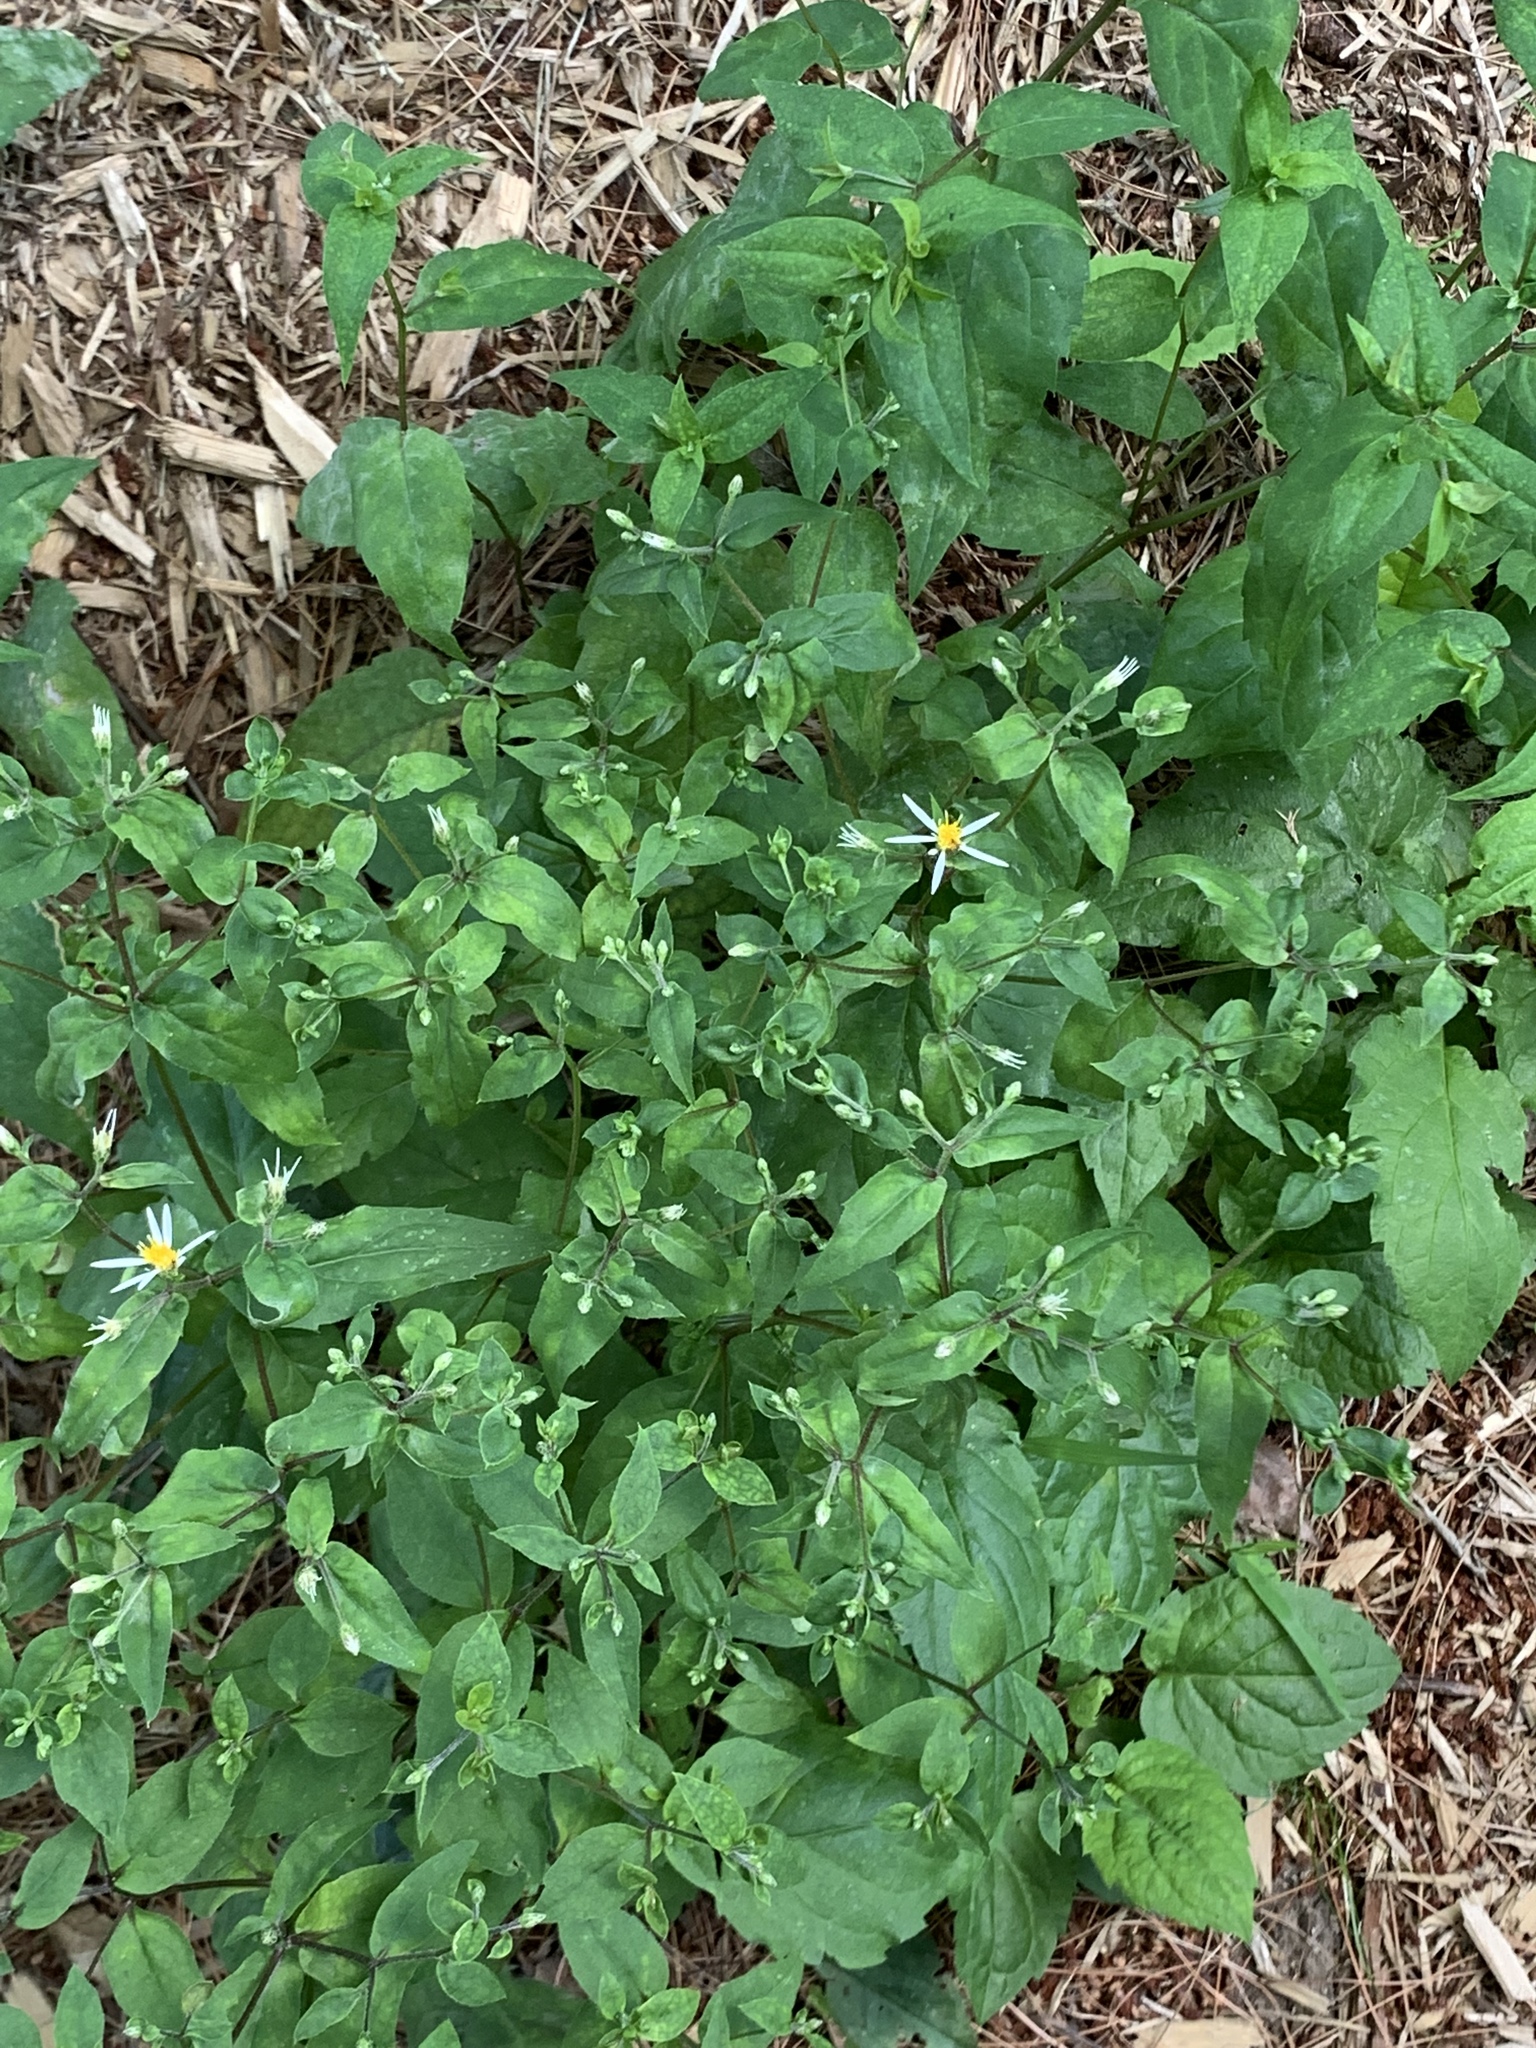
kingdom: Plantae
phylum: Tracheophyta
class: Magnoliopsida
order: Asterales
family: Asteraceae
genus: Eurybia
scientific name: Eurybia divaricata
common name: White wood aster
